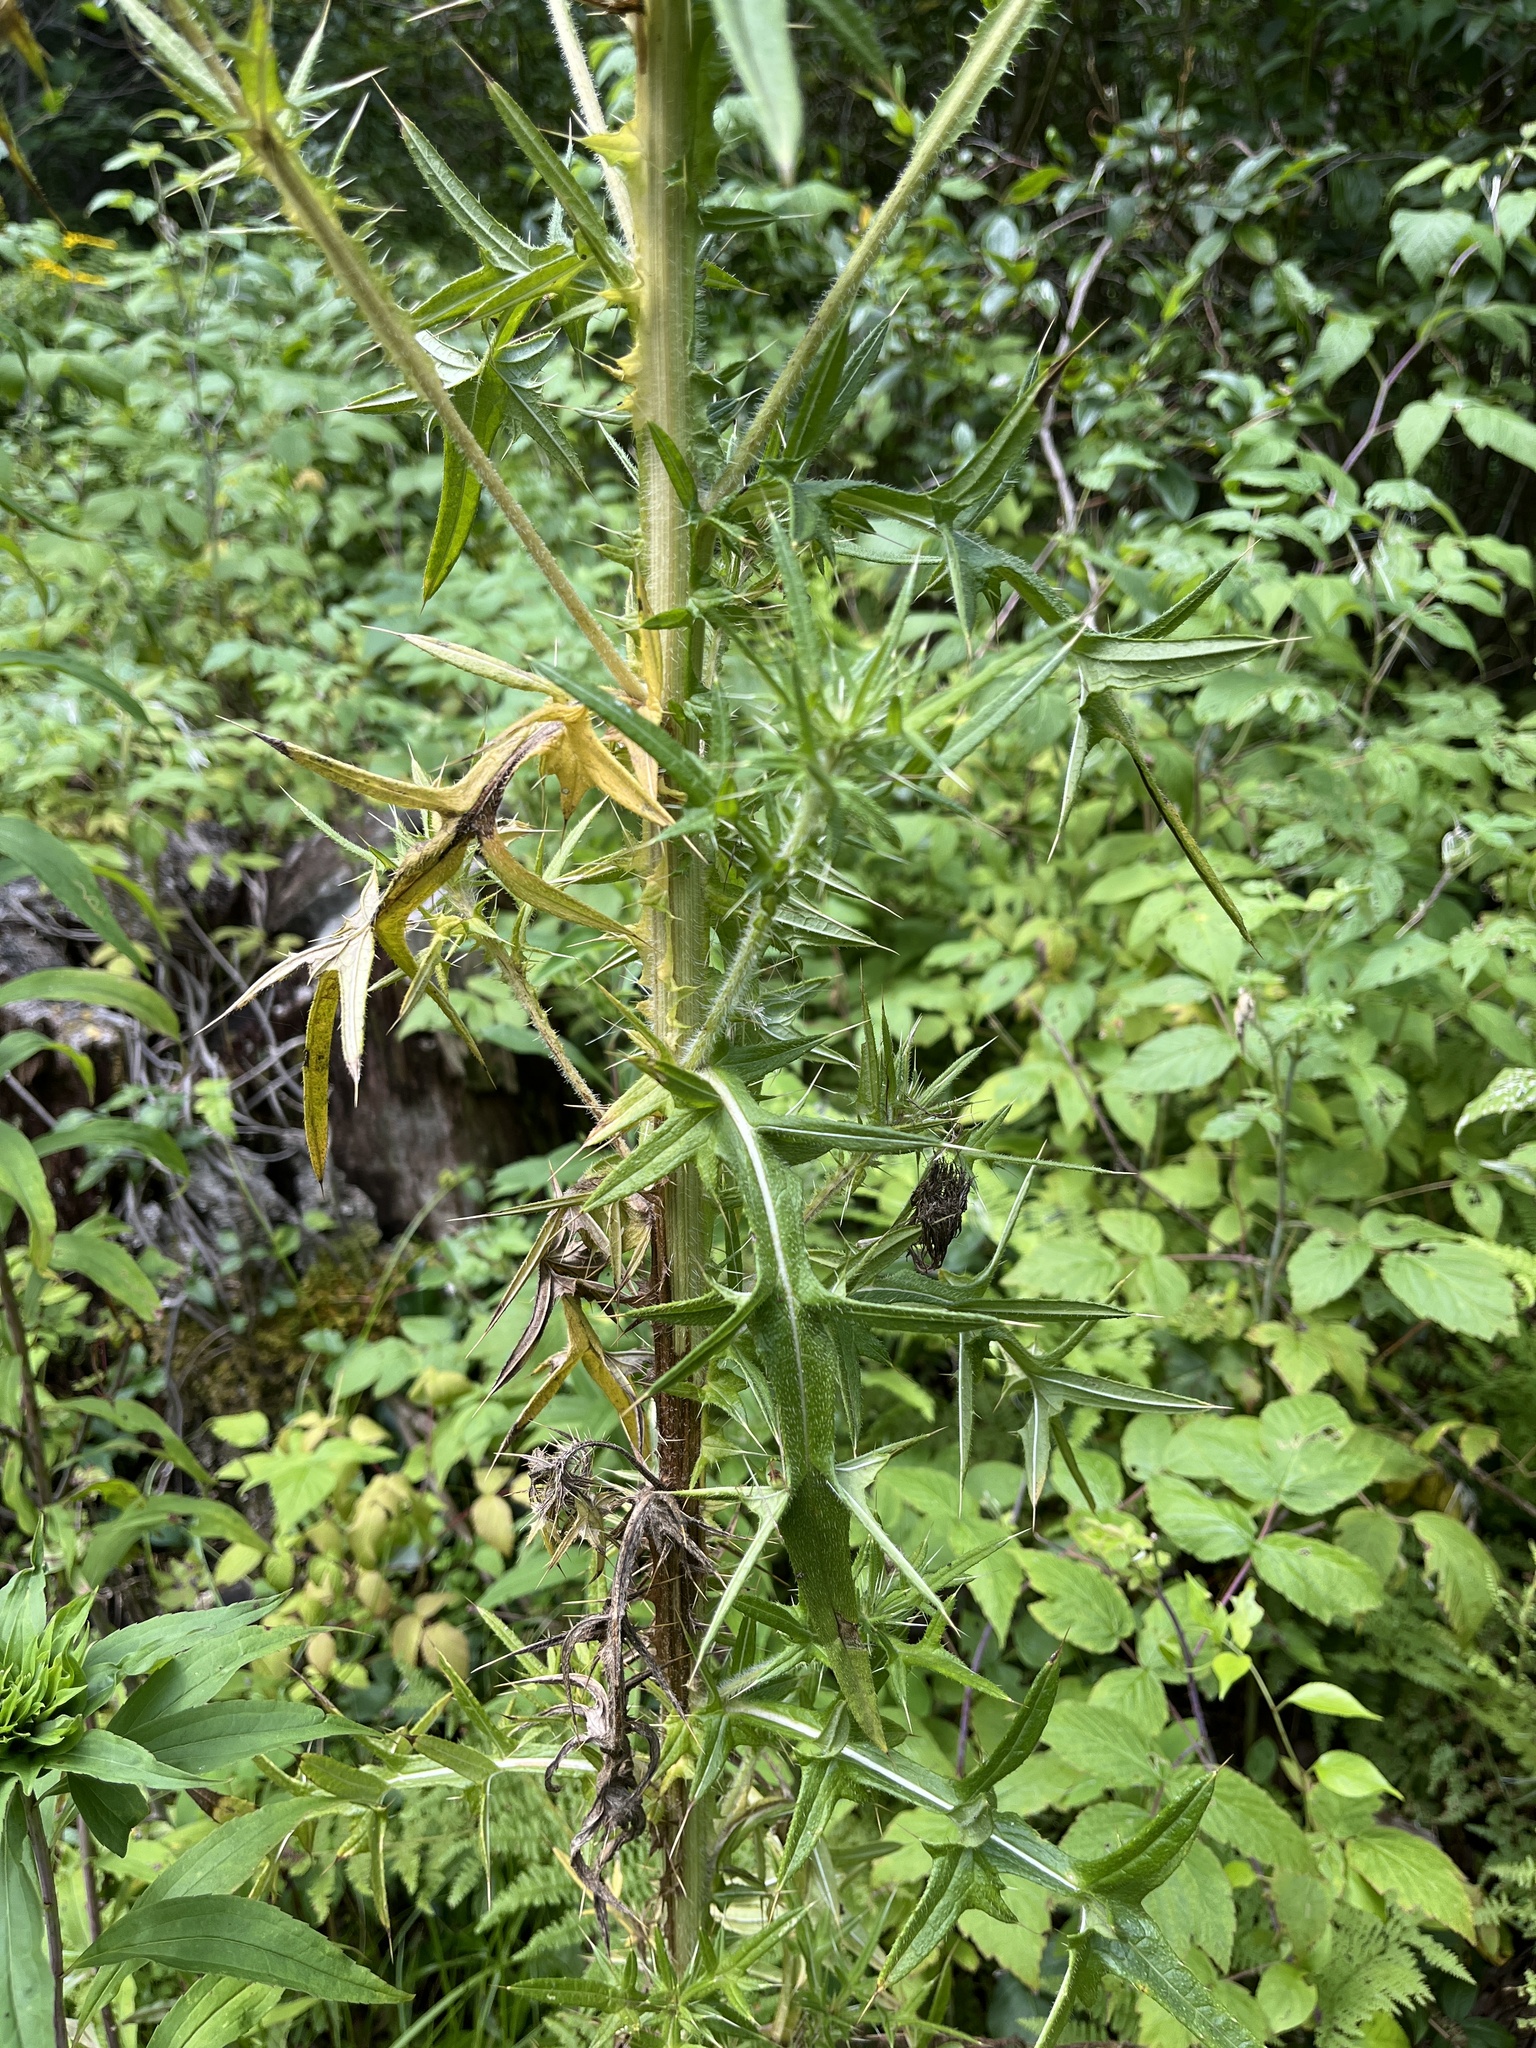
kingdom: Plantae
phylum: Tracheophyta
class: Magnoliopsida
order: Asterales
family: Asteraceae
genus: Cirsium
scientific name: Cirsium vulgare
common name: Bull thistle
